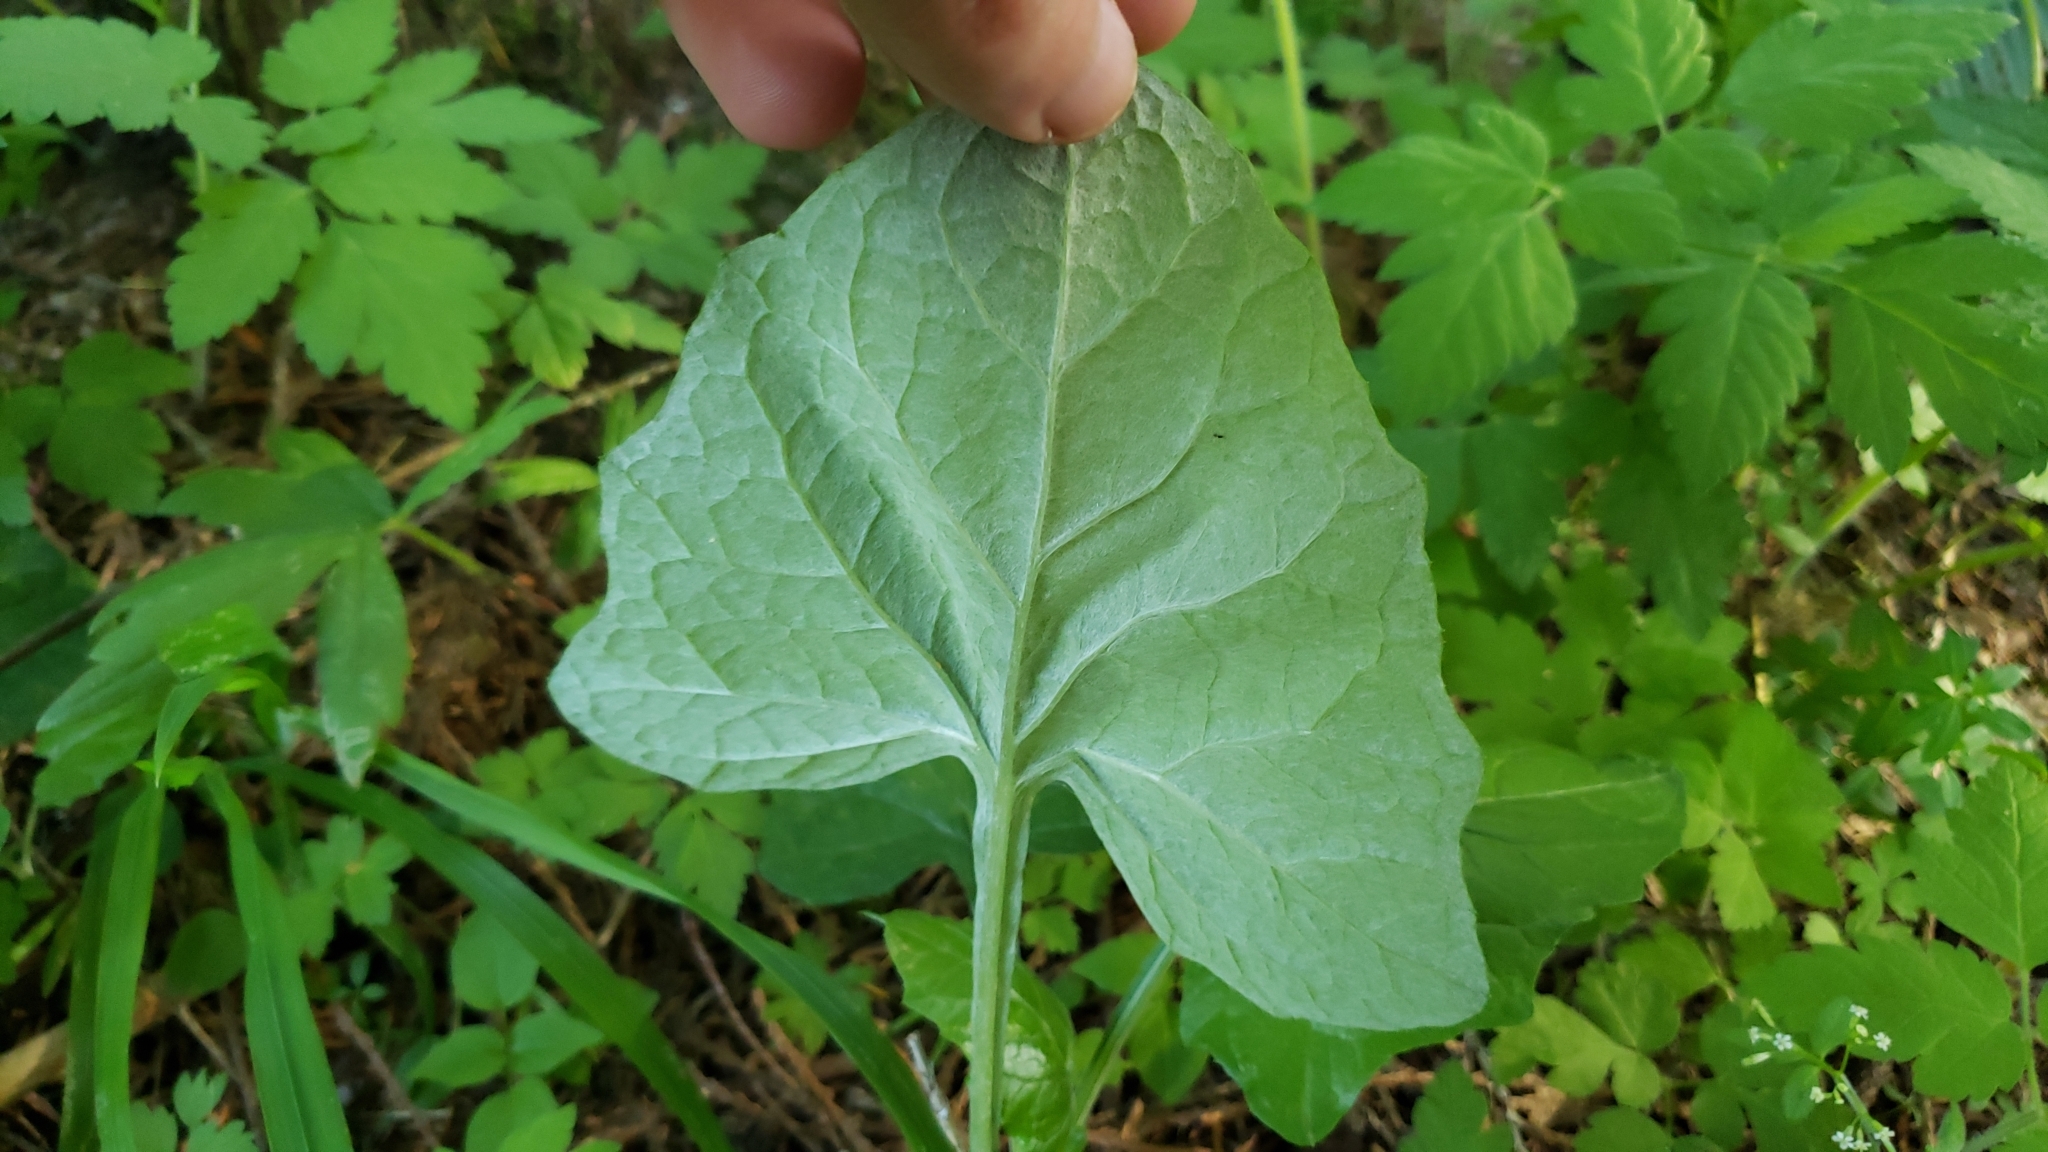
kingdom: Plantae
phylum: Tracheophyta
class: Magnoliopsida
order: Asterales
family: Asteraceae
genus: Adenocaulon
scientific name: Adenocaulon bicolor
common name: Trailplant
